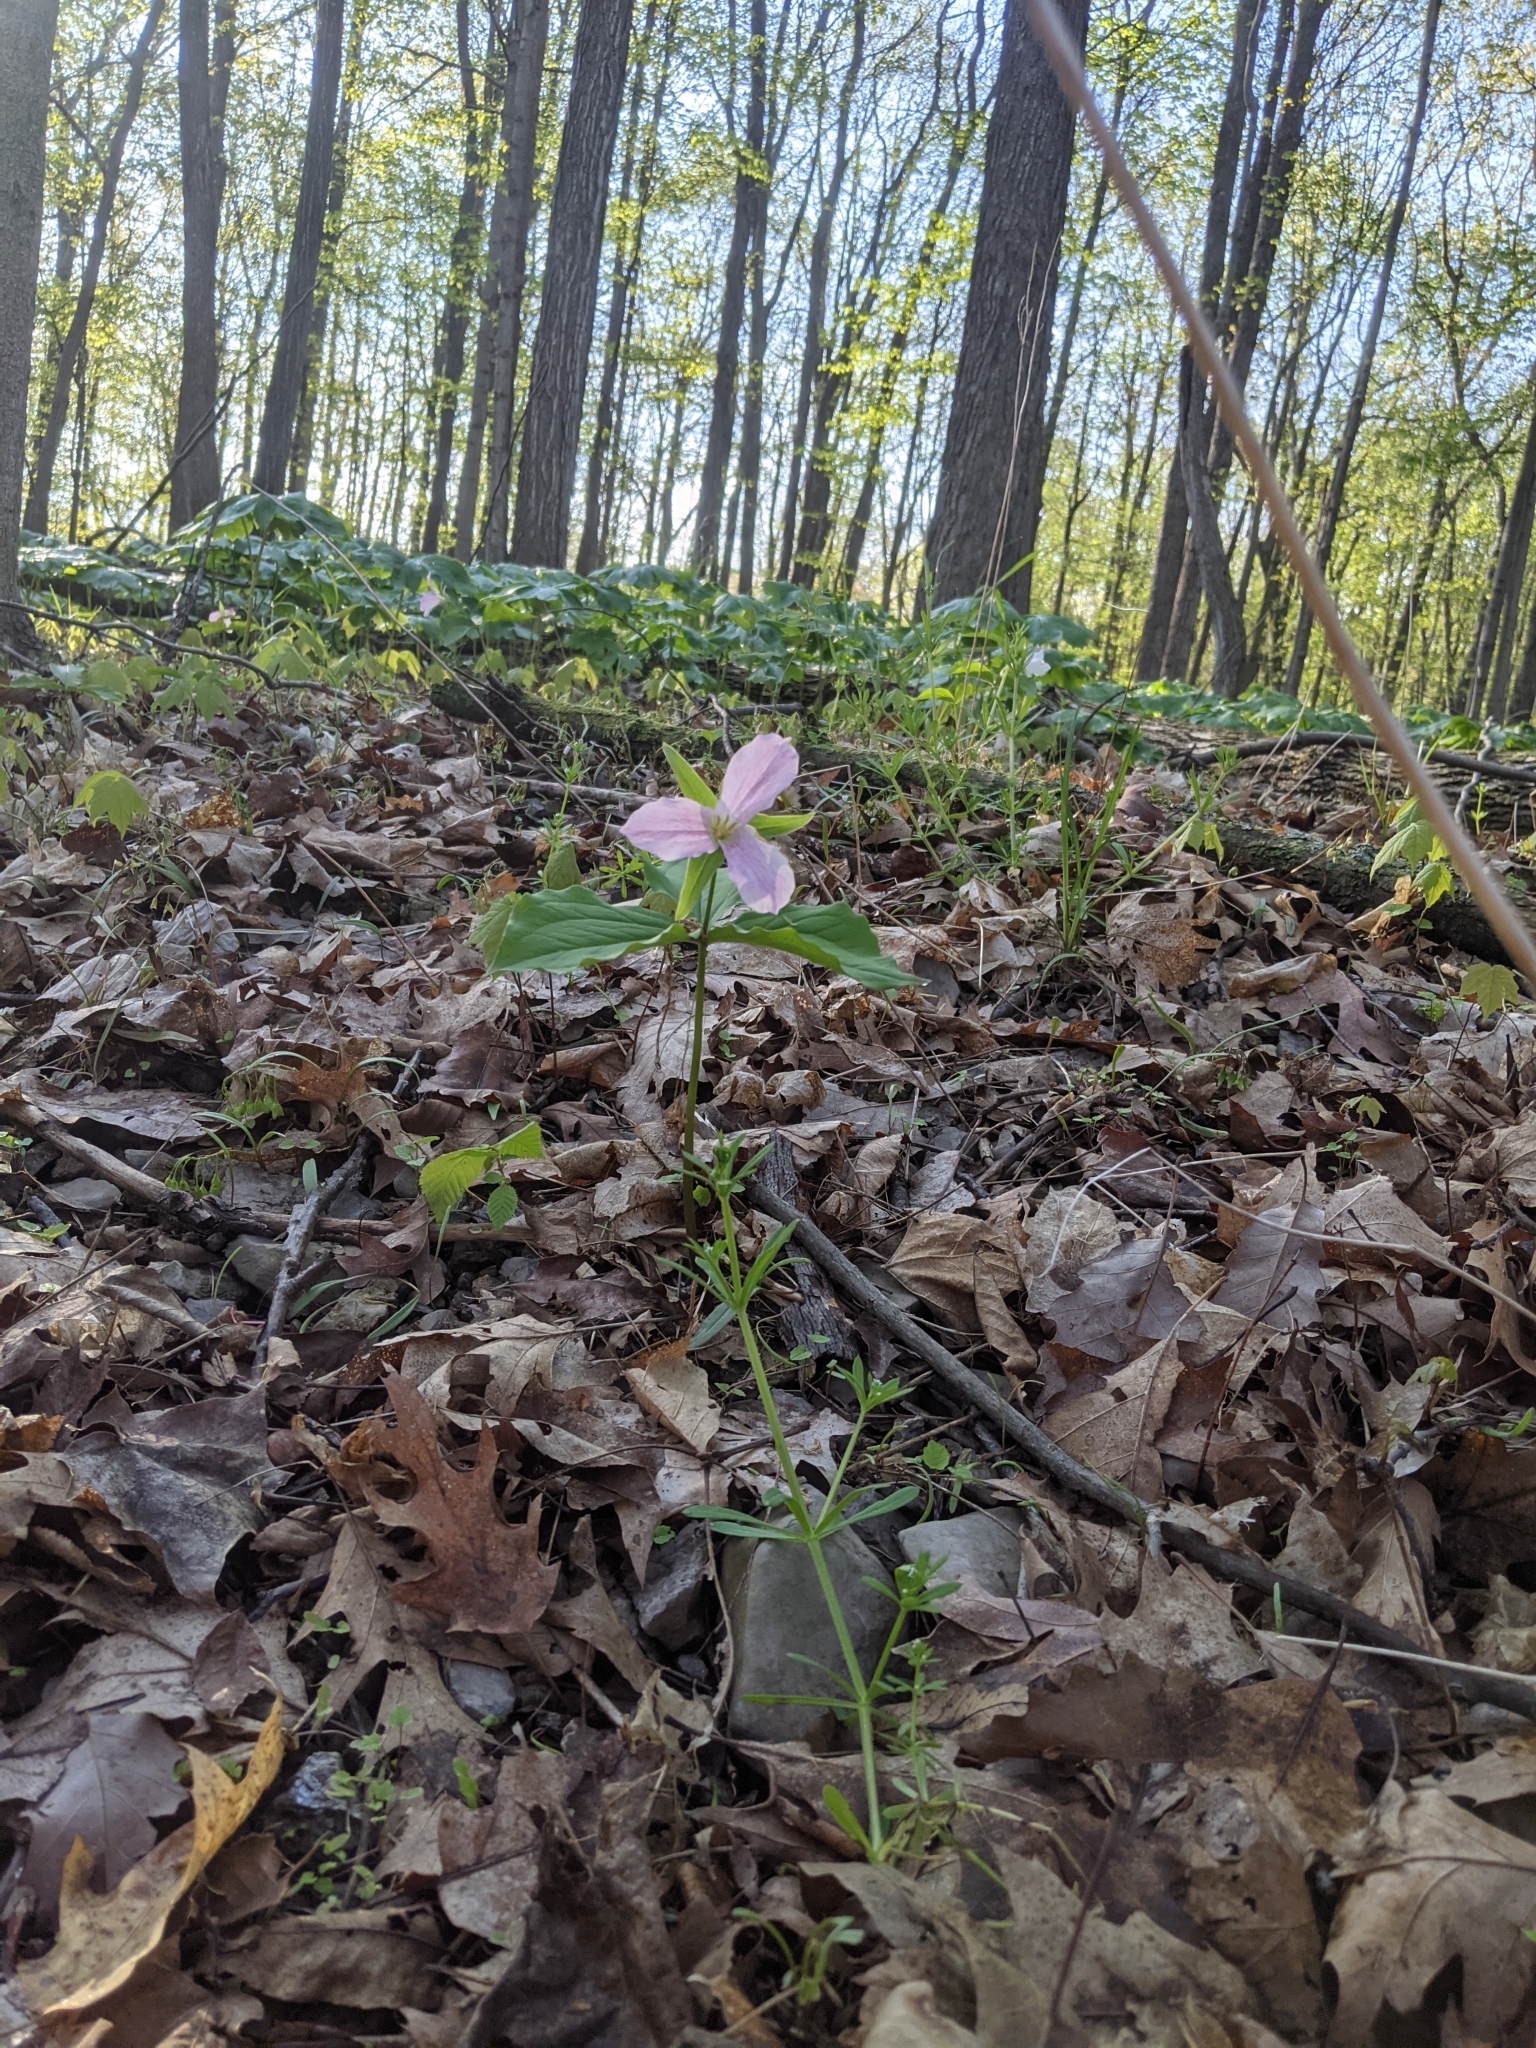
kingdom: Plantae
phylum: Tracheophyta
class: Liliopsida
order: Liliales
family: Melanthiaceae
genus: Trillium
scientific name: Trillium grandiflorum
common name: Great white trillium
